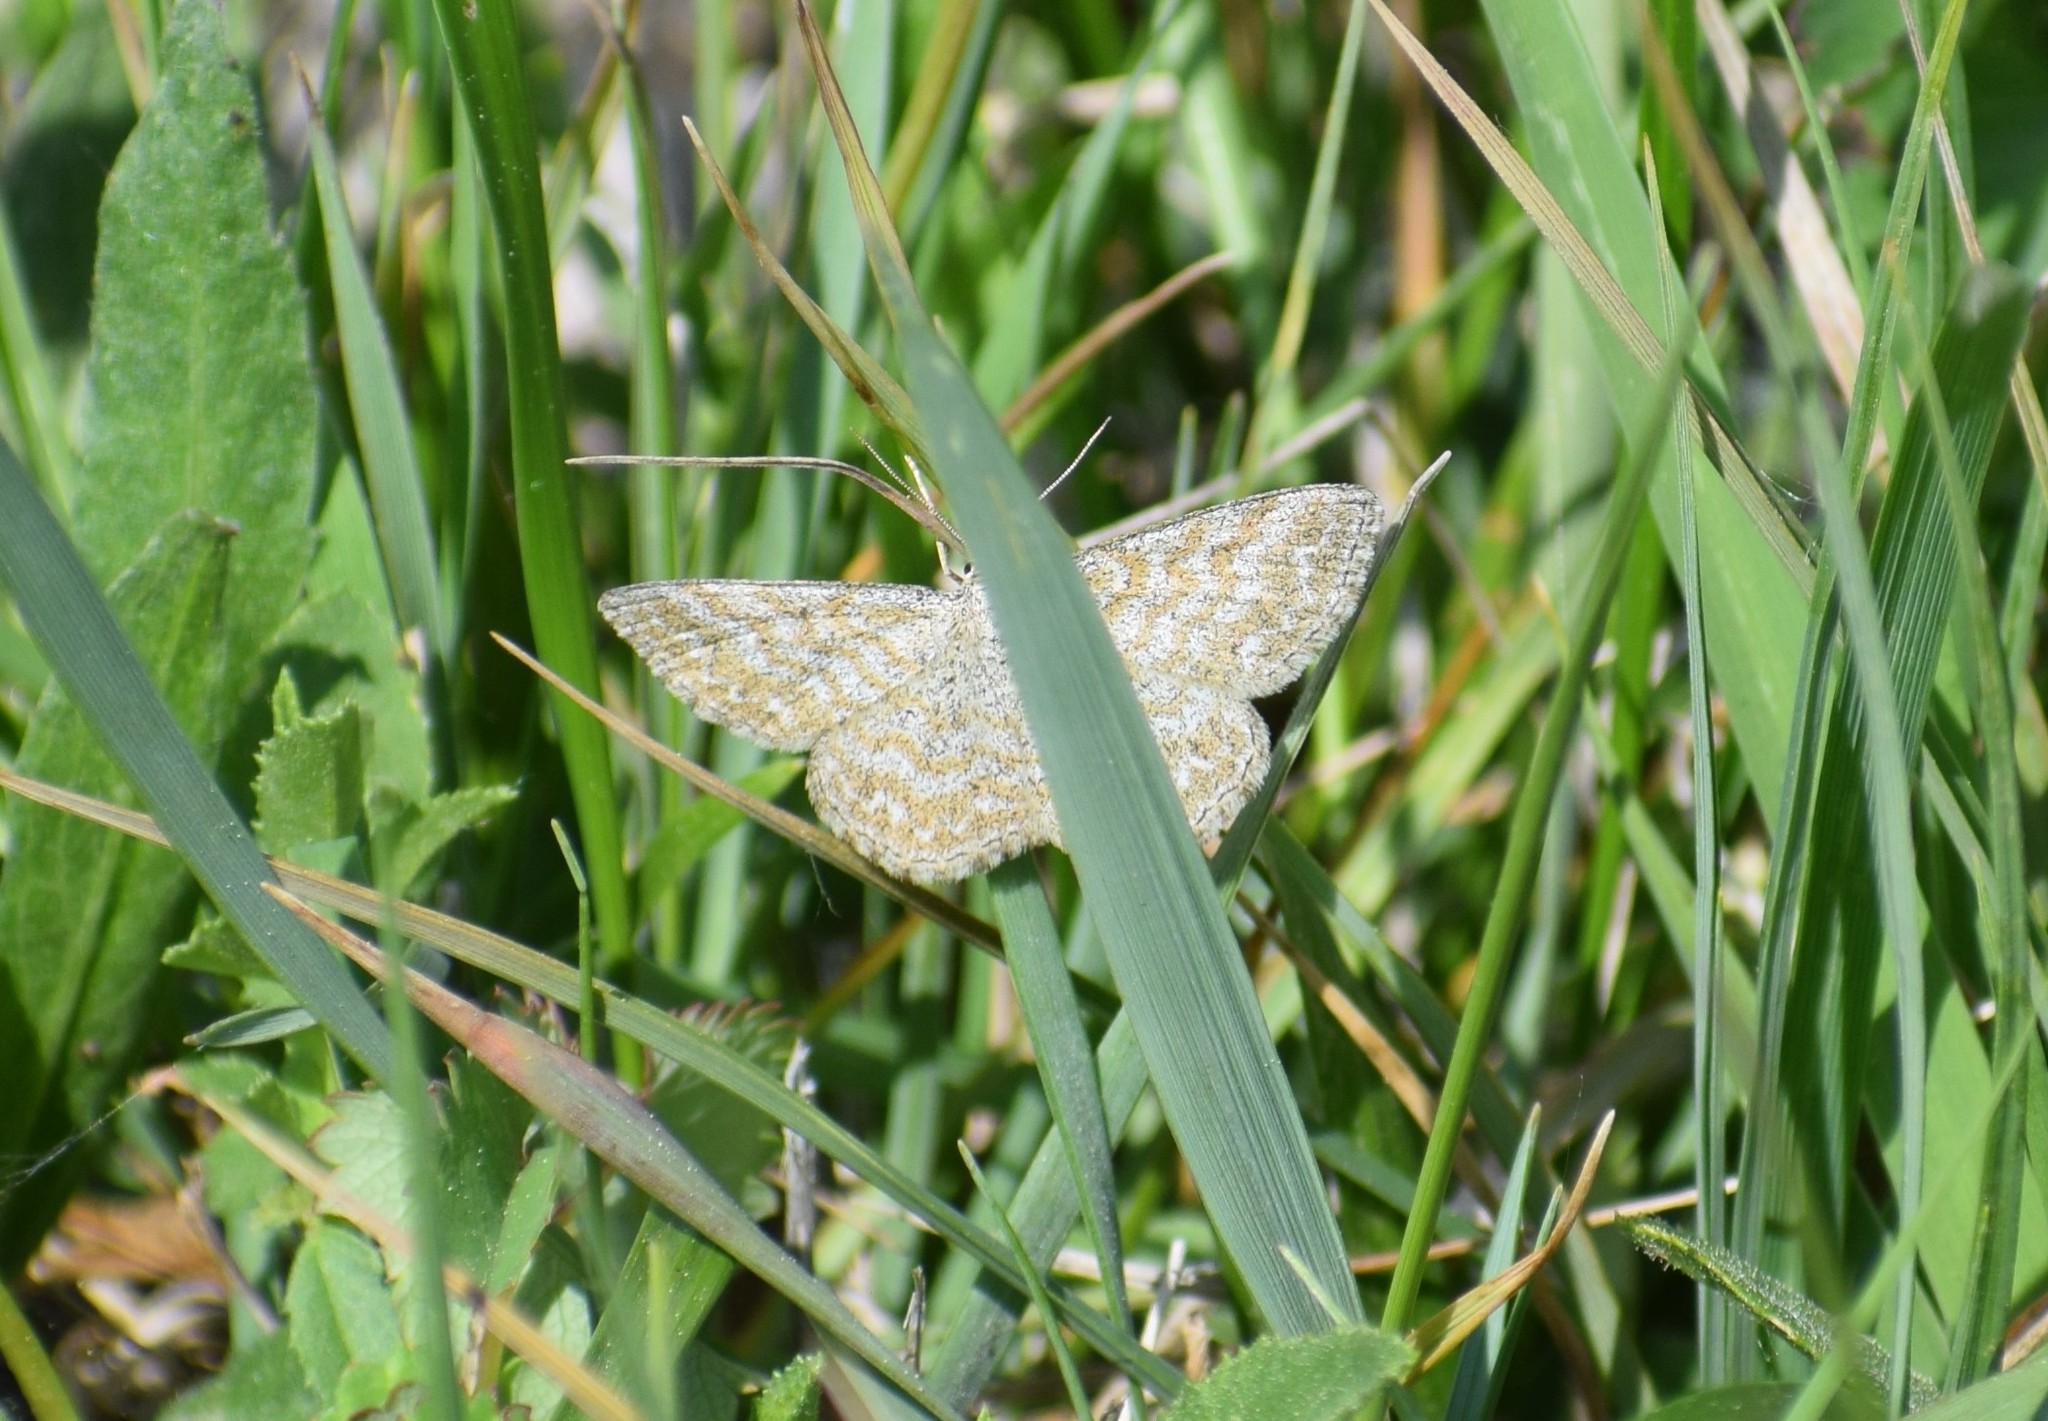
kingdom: Animalia
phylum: Arthropoda
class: Insecta
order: Lepidoptera
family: Geometridae
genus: Scopula
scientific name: Scopula immorata
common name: Lewes wave
